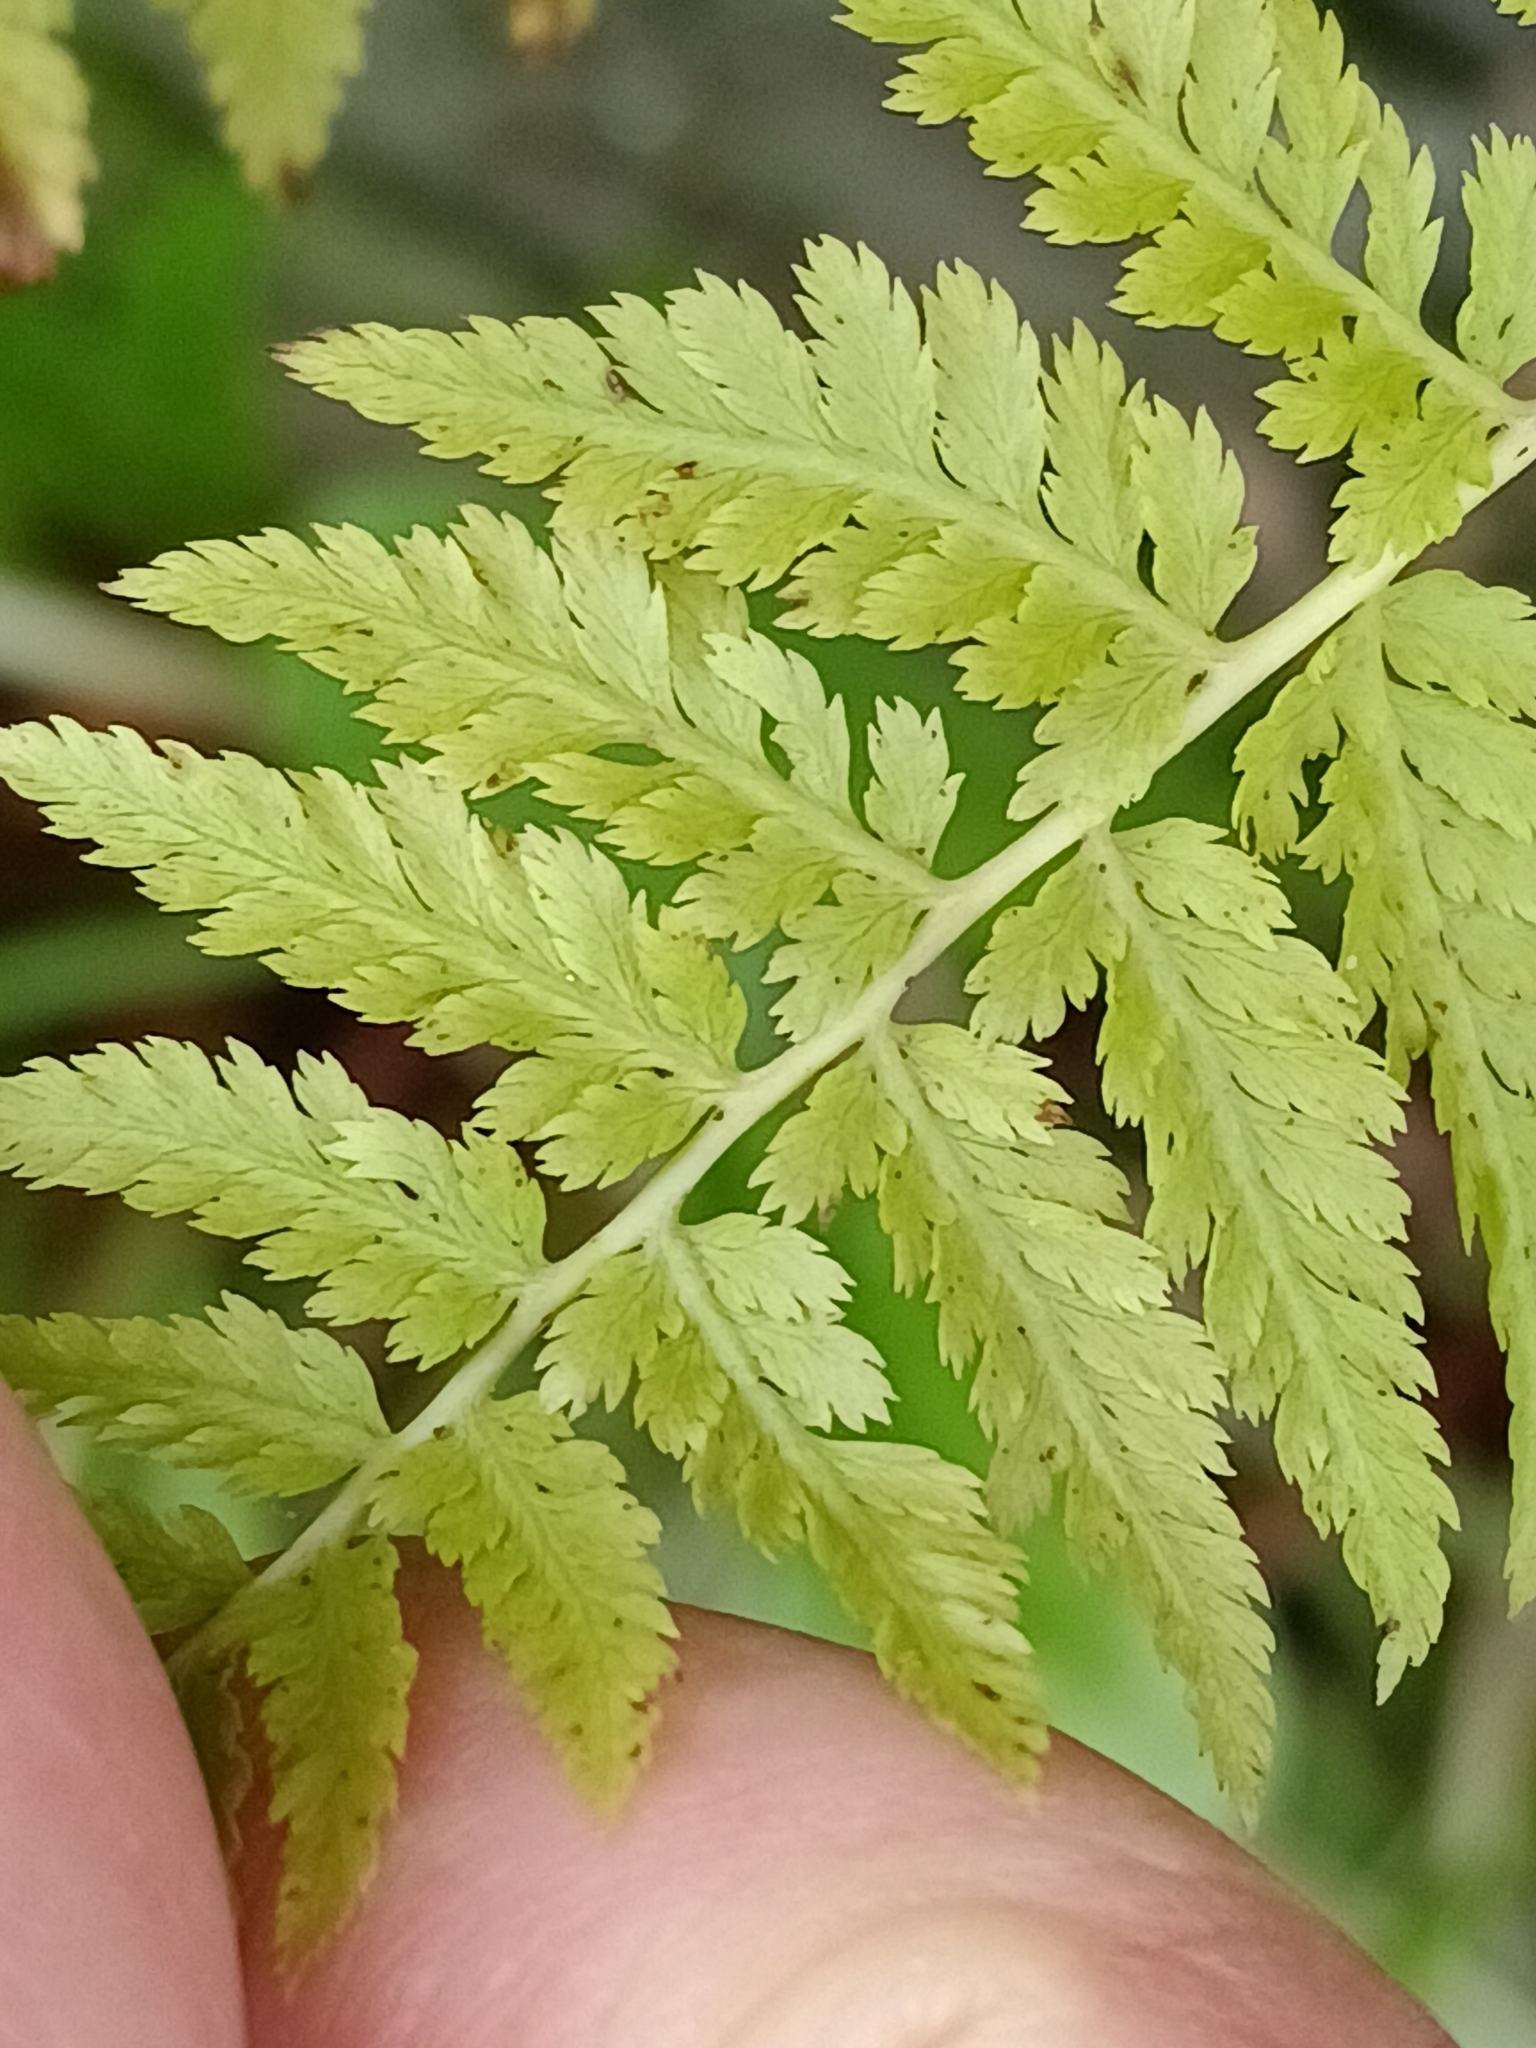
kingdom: Plantae
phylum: Tracheophyta
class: Polypodiopsida
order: Polypodiales
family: Cystopteridaceae
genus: Cystopteris
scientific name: Cystopteris fragilis
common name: Brittle bladder fern
